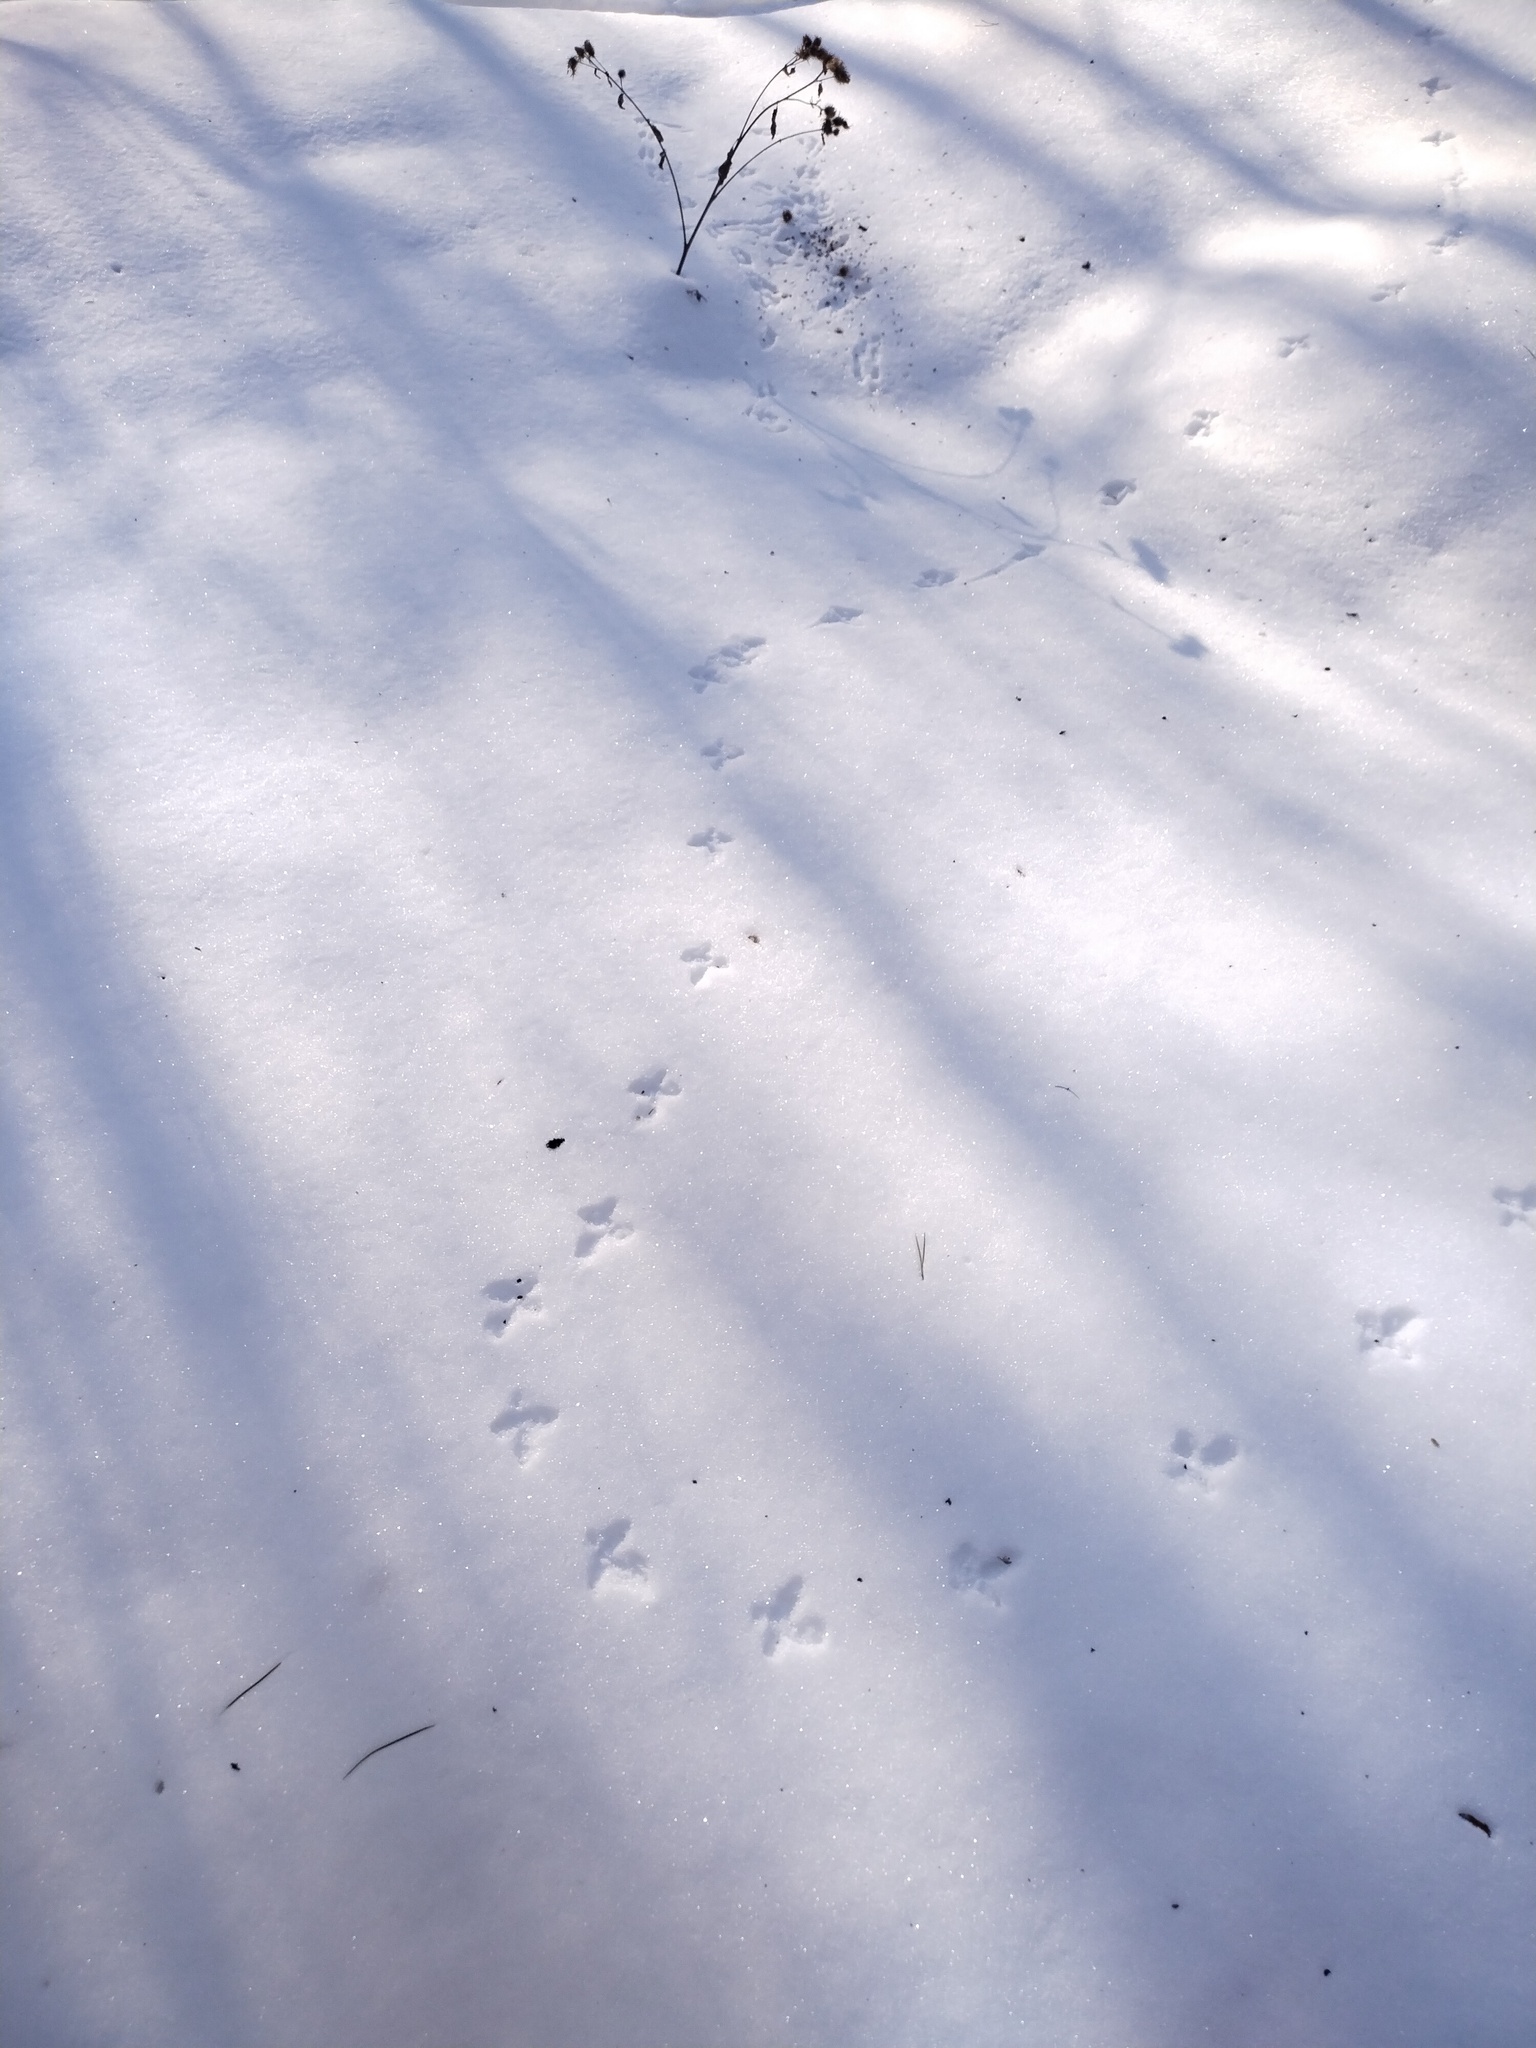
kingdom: Animalia
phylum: Chordata
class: Aves
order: Galliformes
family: Phasianidae
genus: Tetrastes
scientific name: Tetrastes bonasia
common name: Hazel grouse
